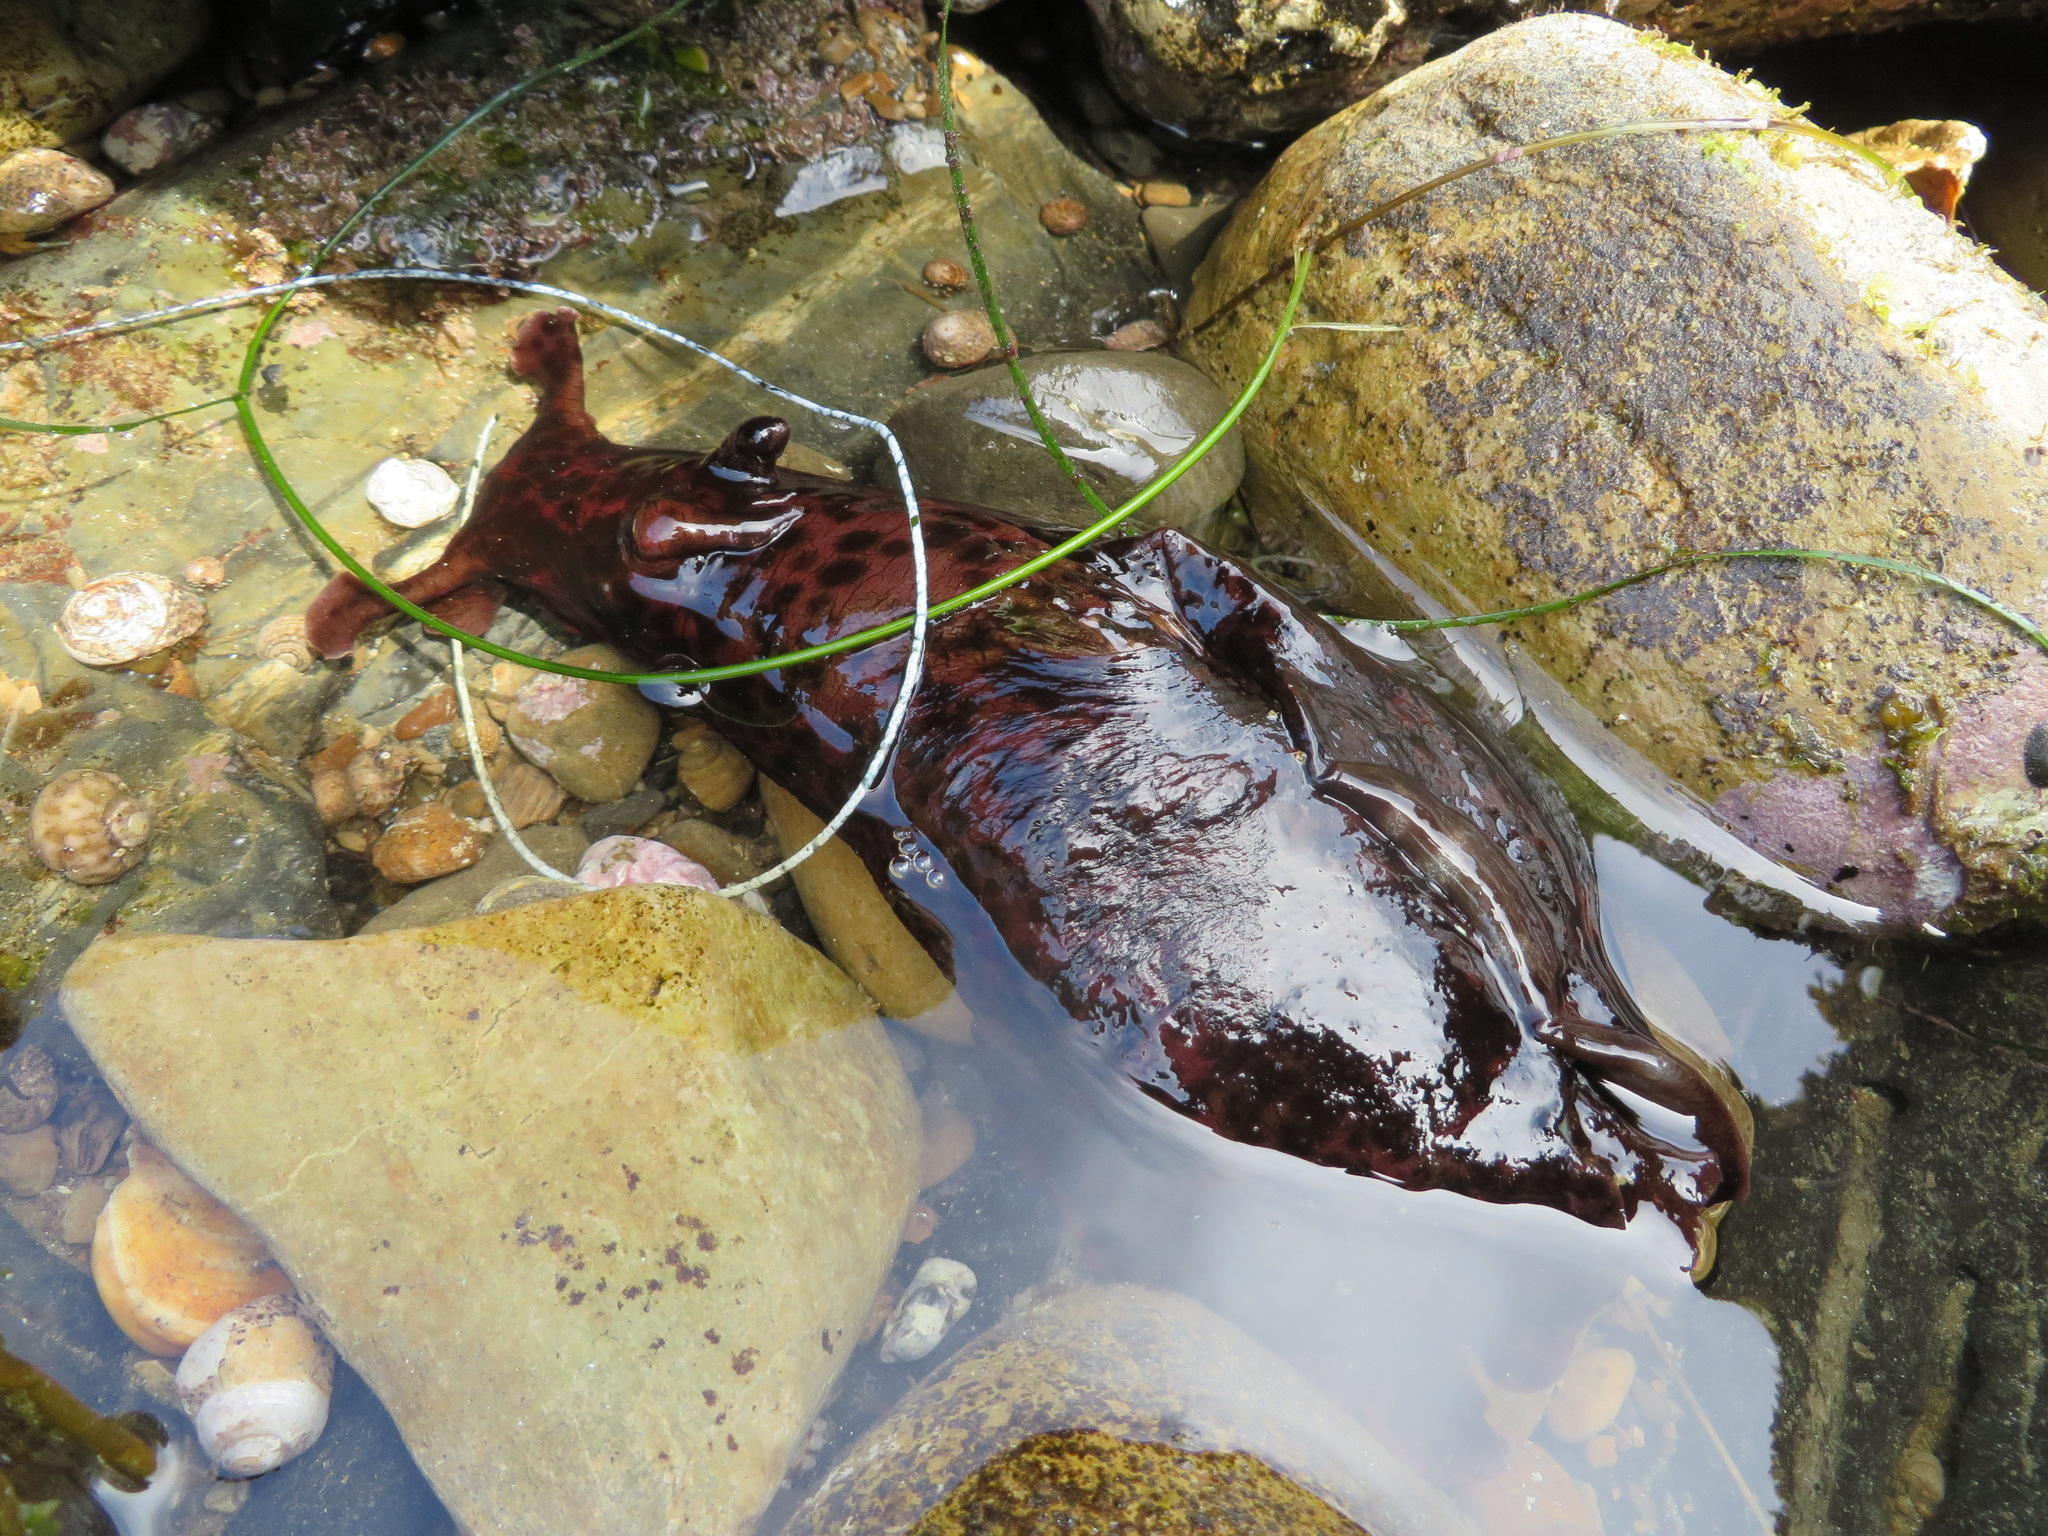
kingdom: Animalia
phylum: Mollusca
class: Gastropoda
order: Aplysiida
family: Aplysiidae
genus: Aplysia
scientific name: Aplysia californica
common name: California seahare
